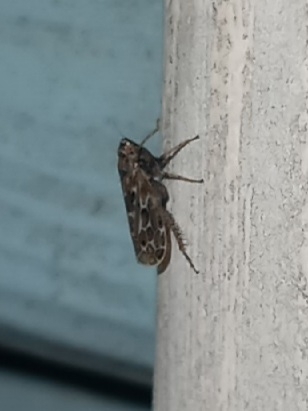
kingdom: Animalia
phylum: Arthropoda
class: Insecta
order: Hemiptera
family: Cicadellidae
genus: Polyamia
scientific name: Polyamia interrupta
